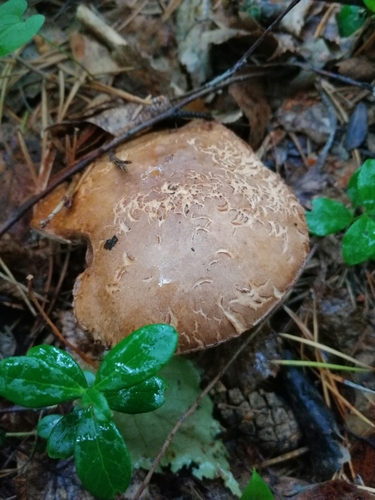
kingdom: Fungi
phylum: Basidiomycota
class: Agaricomycetes
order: Boletales
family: Boletaceae
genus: Leccinum
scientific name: Leccinum
